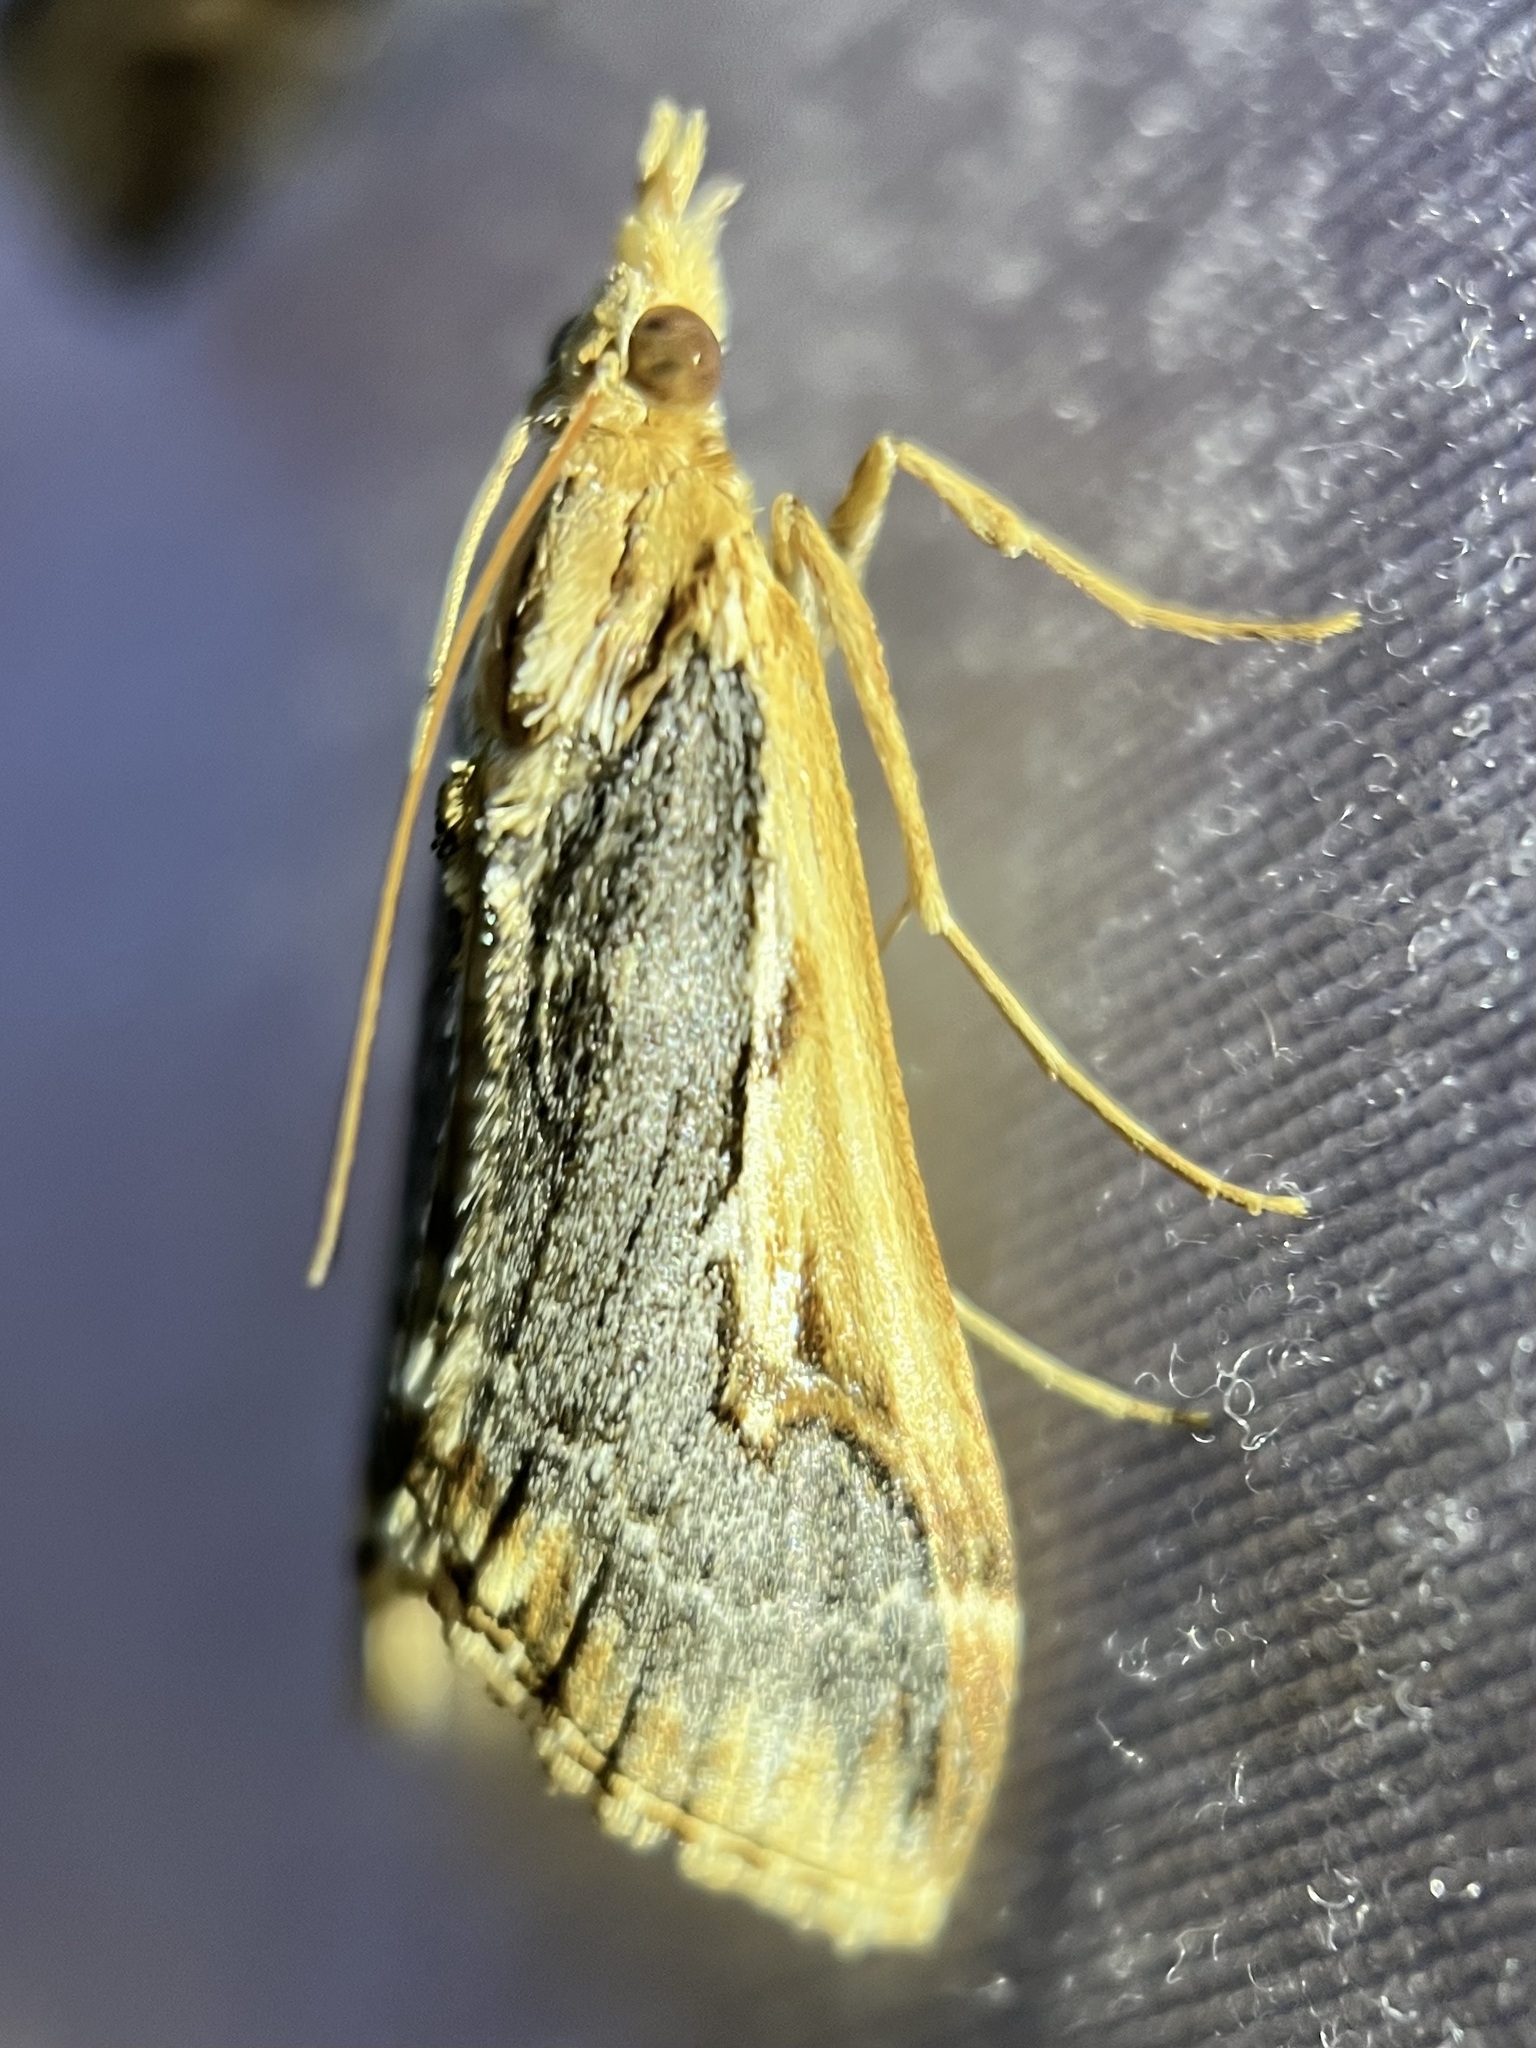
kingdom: Animalia
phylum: Arthropoda
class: Insecta
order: Lepidoptera
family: Crambidae
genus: Loxostege
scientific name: Loxostege albiceralis
